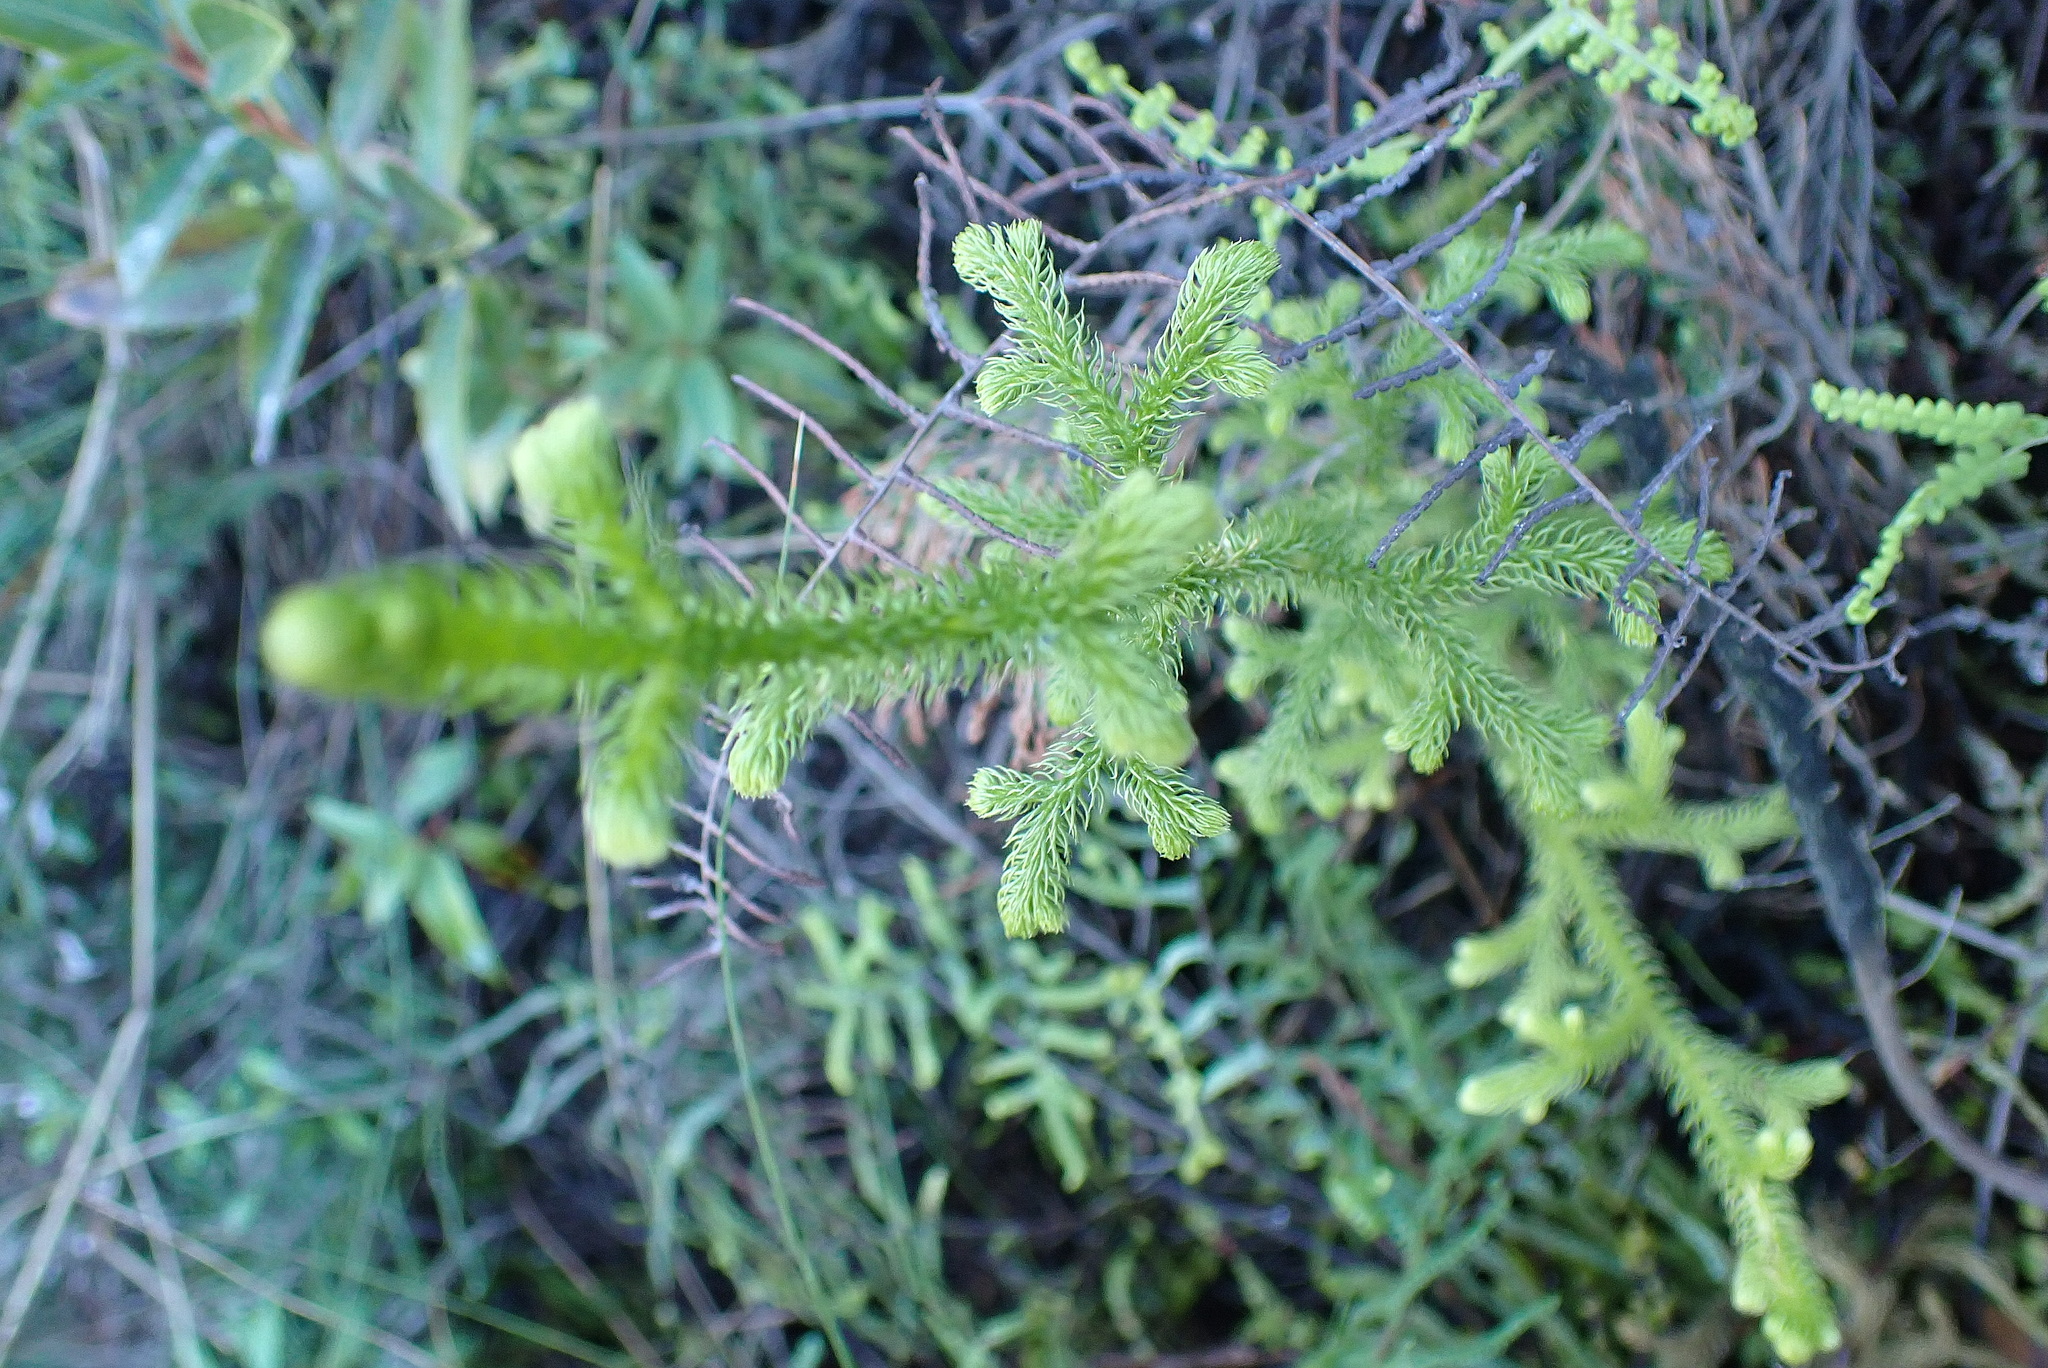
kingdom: Plantae
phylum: Tracheophyta
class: Lycopodiopsida
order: Lycopodiales
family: Lycopodiaceae
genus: Palhinhaea
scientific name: Palhinhaea cernua
